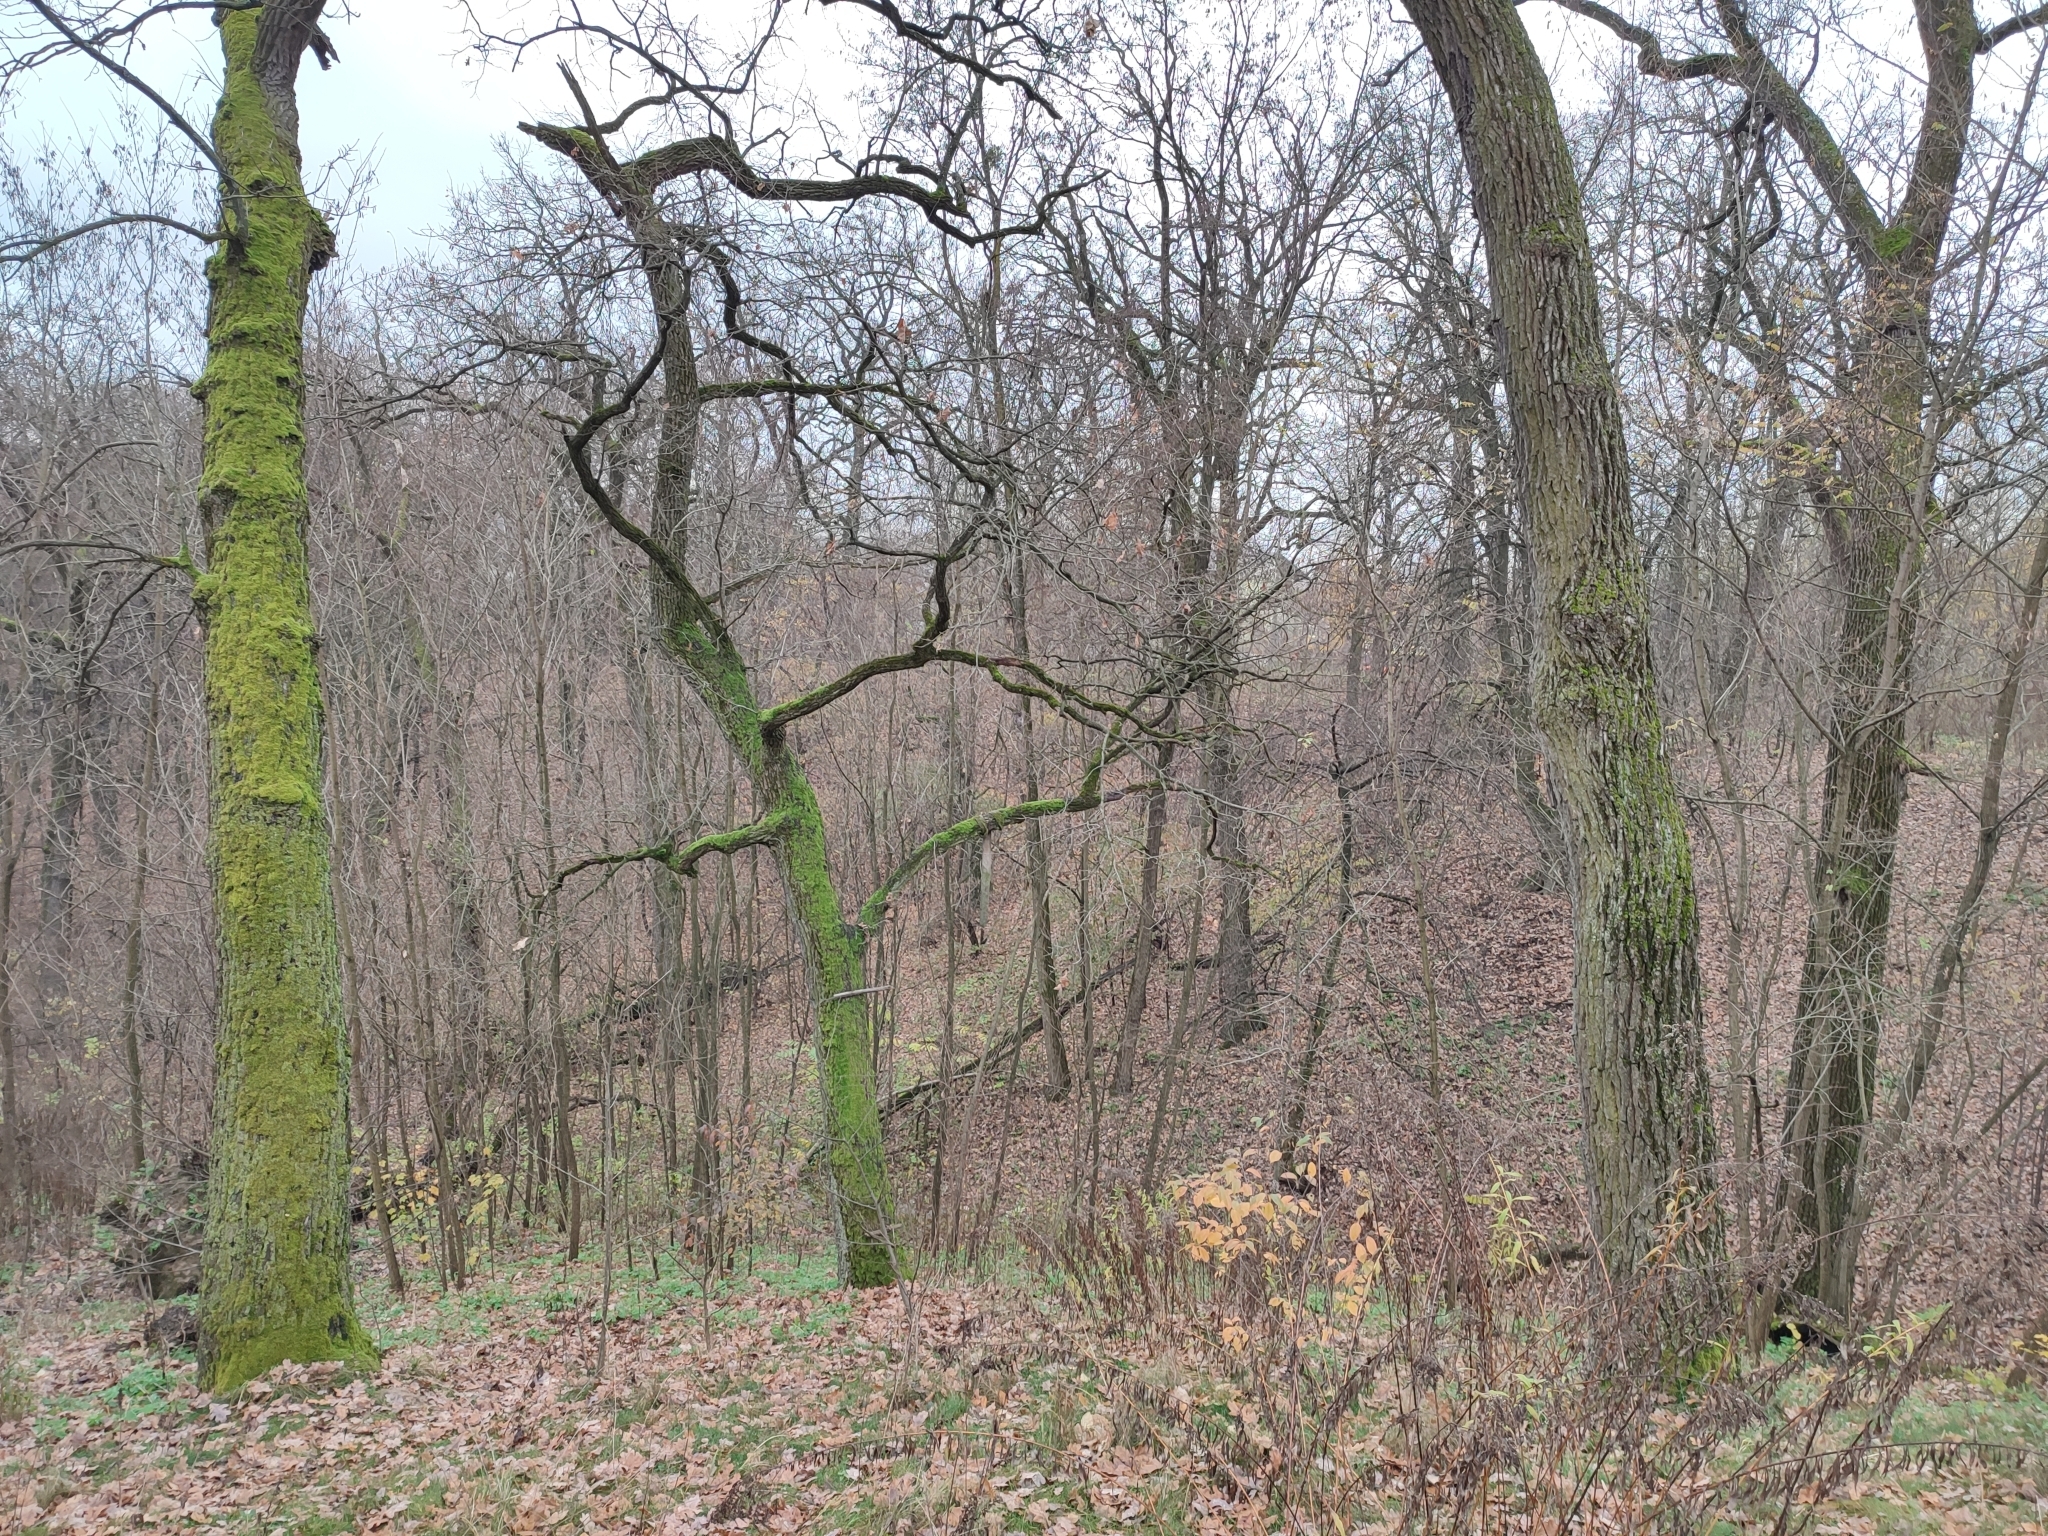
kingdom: Plantae
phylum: Tracheophyta
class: Magnoliopsida
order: Fagales
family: Fagaceae
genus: Quercus
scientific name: Quercus robur
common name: Pedunculate oak
